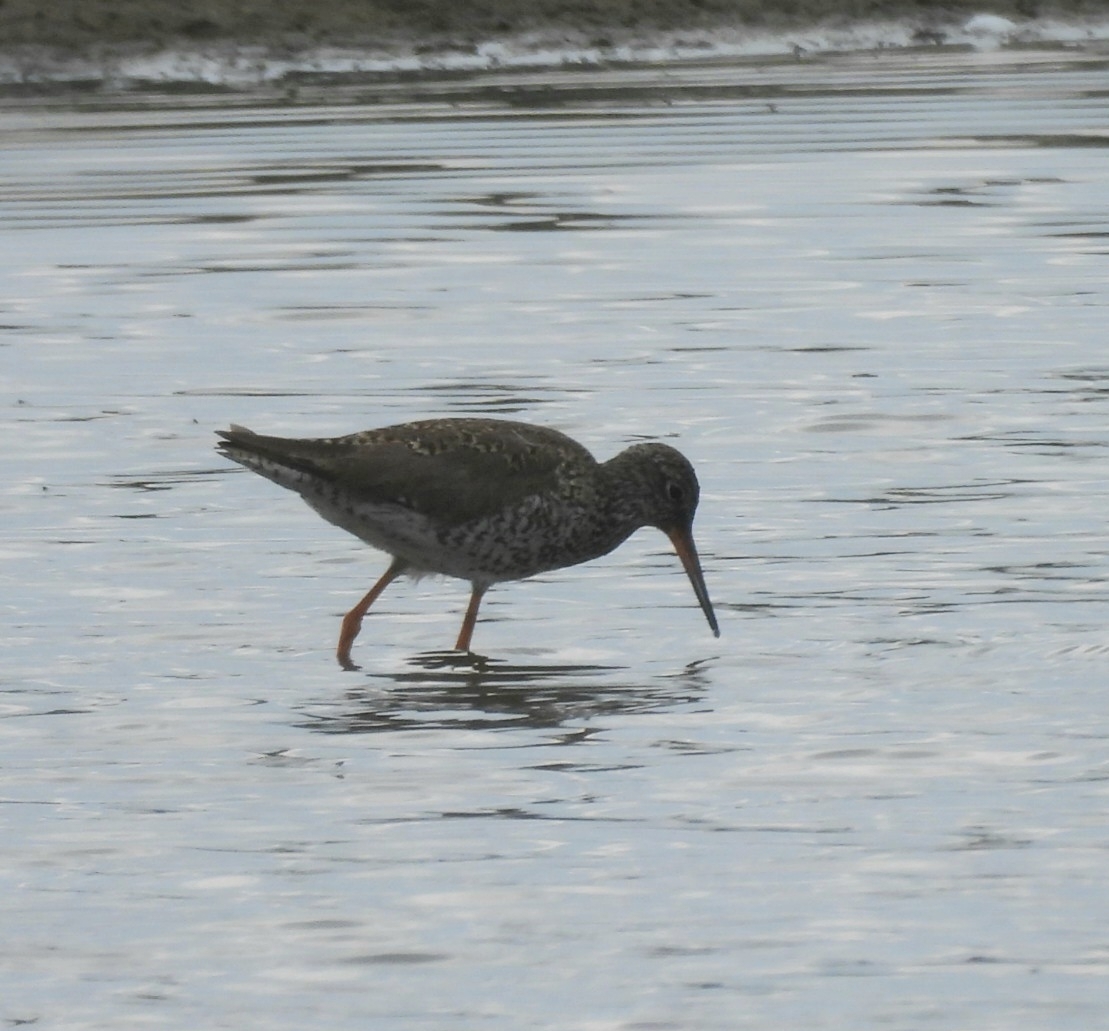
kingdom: Animalia
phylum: Chordata
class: Aves
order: Charadriiformes
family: Scolopacidae
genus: Tringa
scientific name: Tringa totanus
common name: Common redshank
